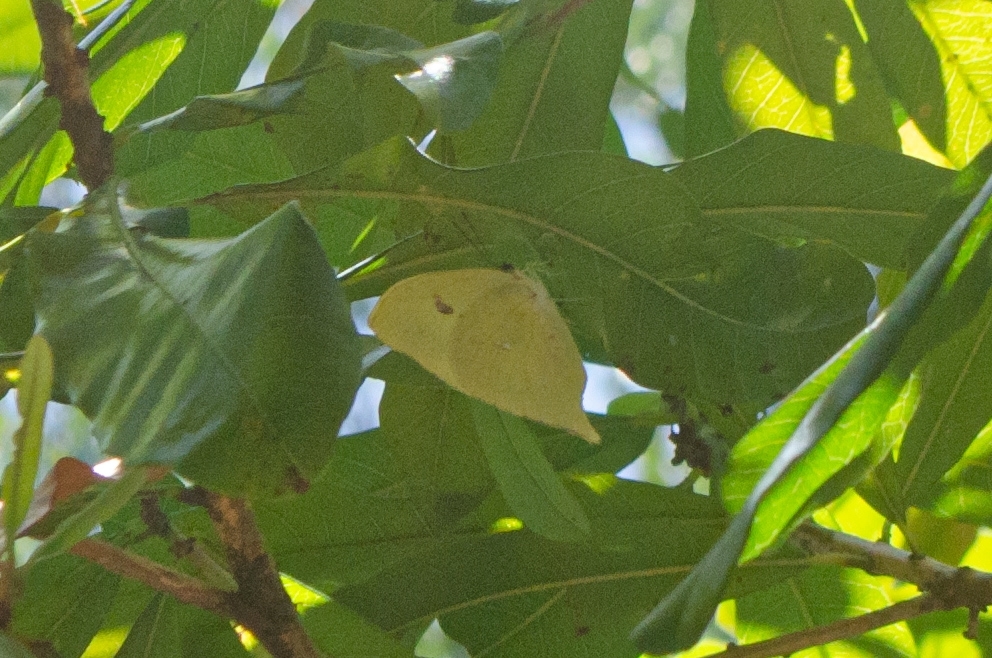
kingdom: Animalia
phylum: Arthropoda
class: Insecta
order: Lepidoptera
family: Pieridae
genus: Phoebis
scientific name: Phoebis neocypris
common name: Tailed sulphur
